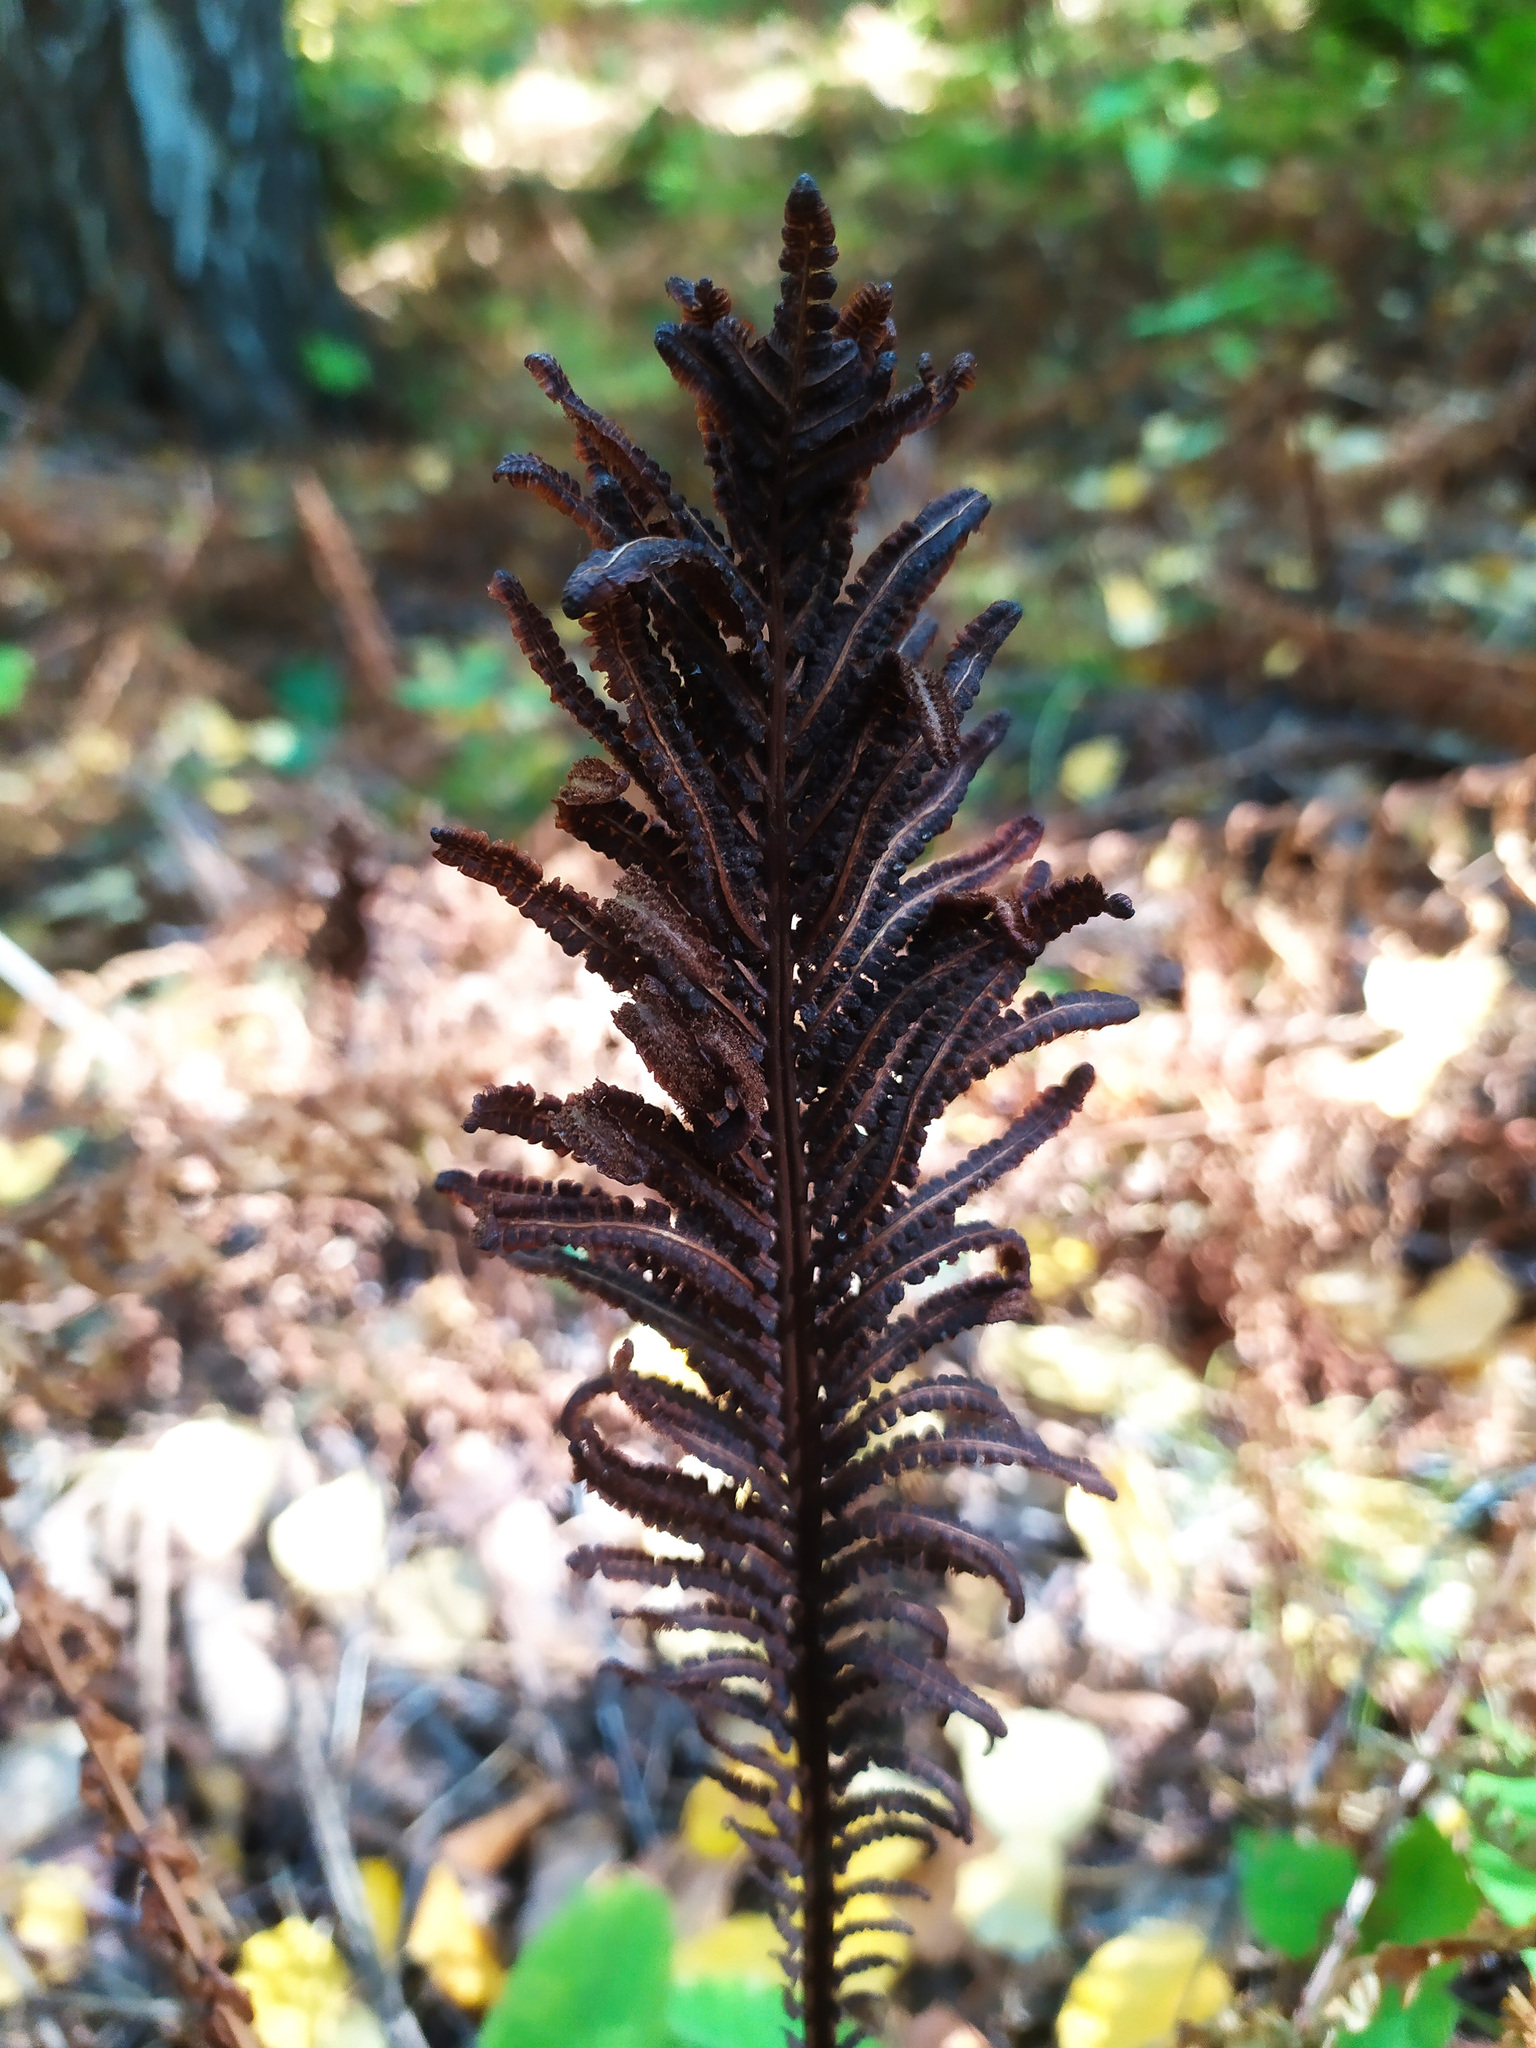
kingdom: Plantae
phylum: Tracheophyta
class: Polypodiopsida
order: Polypodiales
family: Onocleaceae
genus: Matteuccia
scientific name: Matteuccia struthiopteris
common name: Ostrich fern
